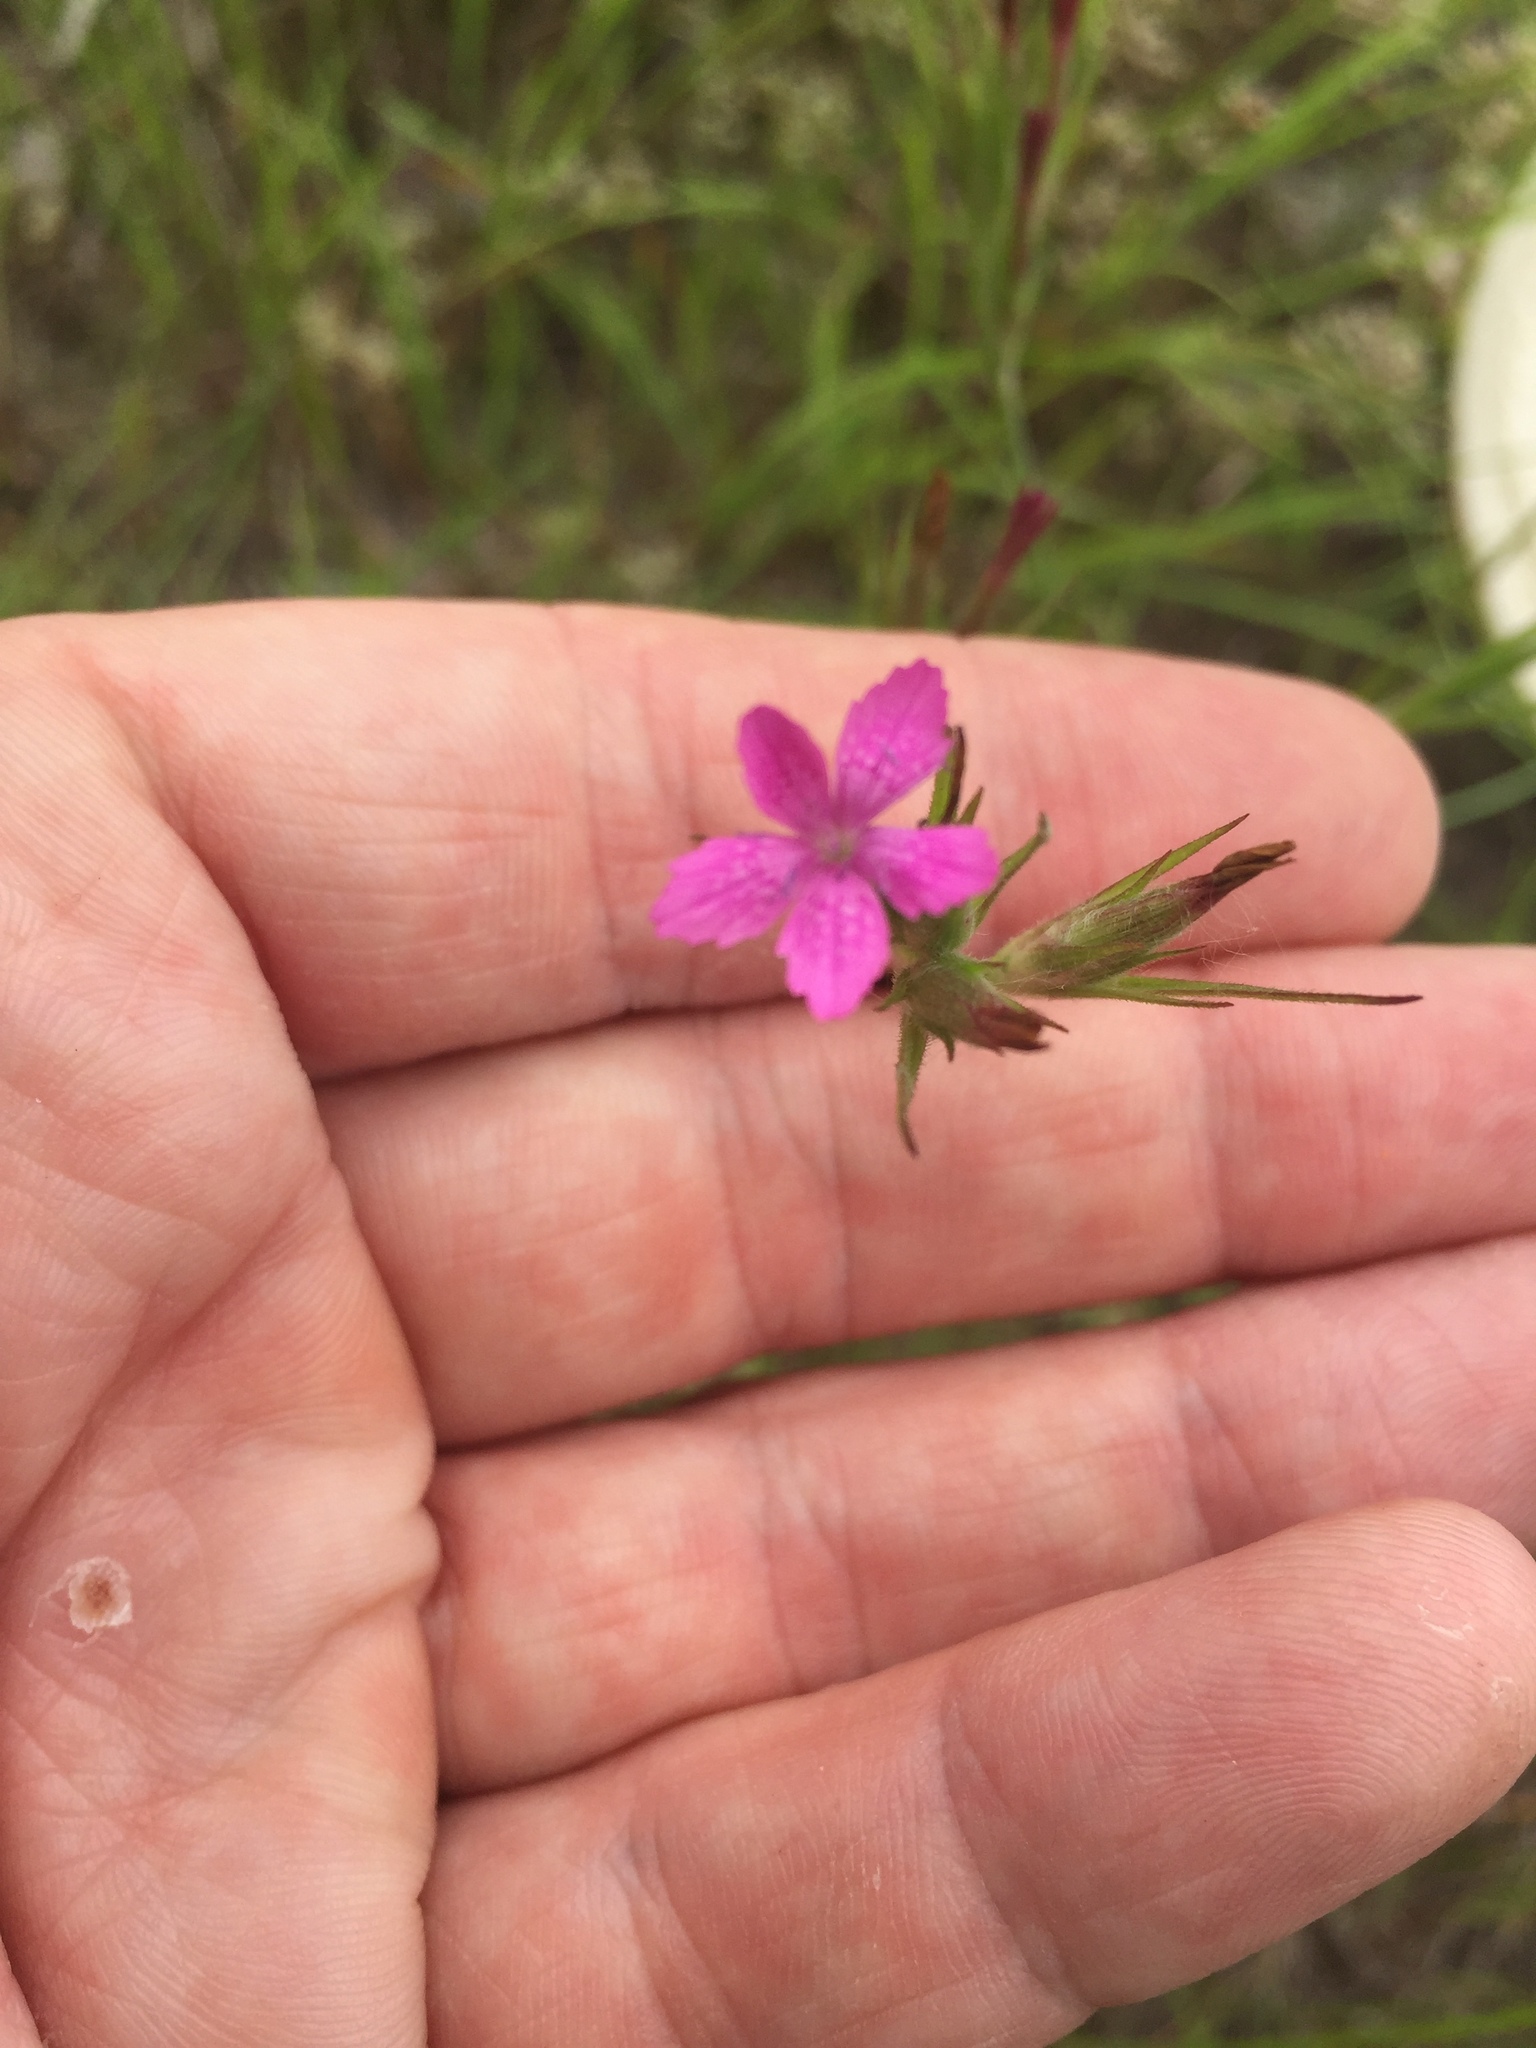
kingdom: Plantae
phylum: Tracheophyta
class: Magnoliopsida
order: Caryophyllales
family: Caryophyllaceae
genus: Dianthus
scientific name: Dianthus armeria
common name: Deptford pink
